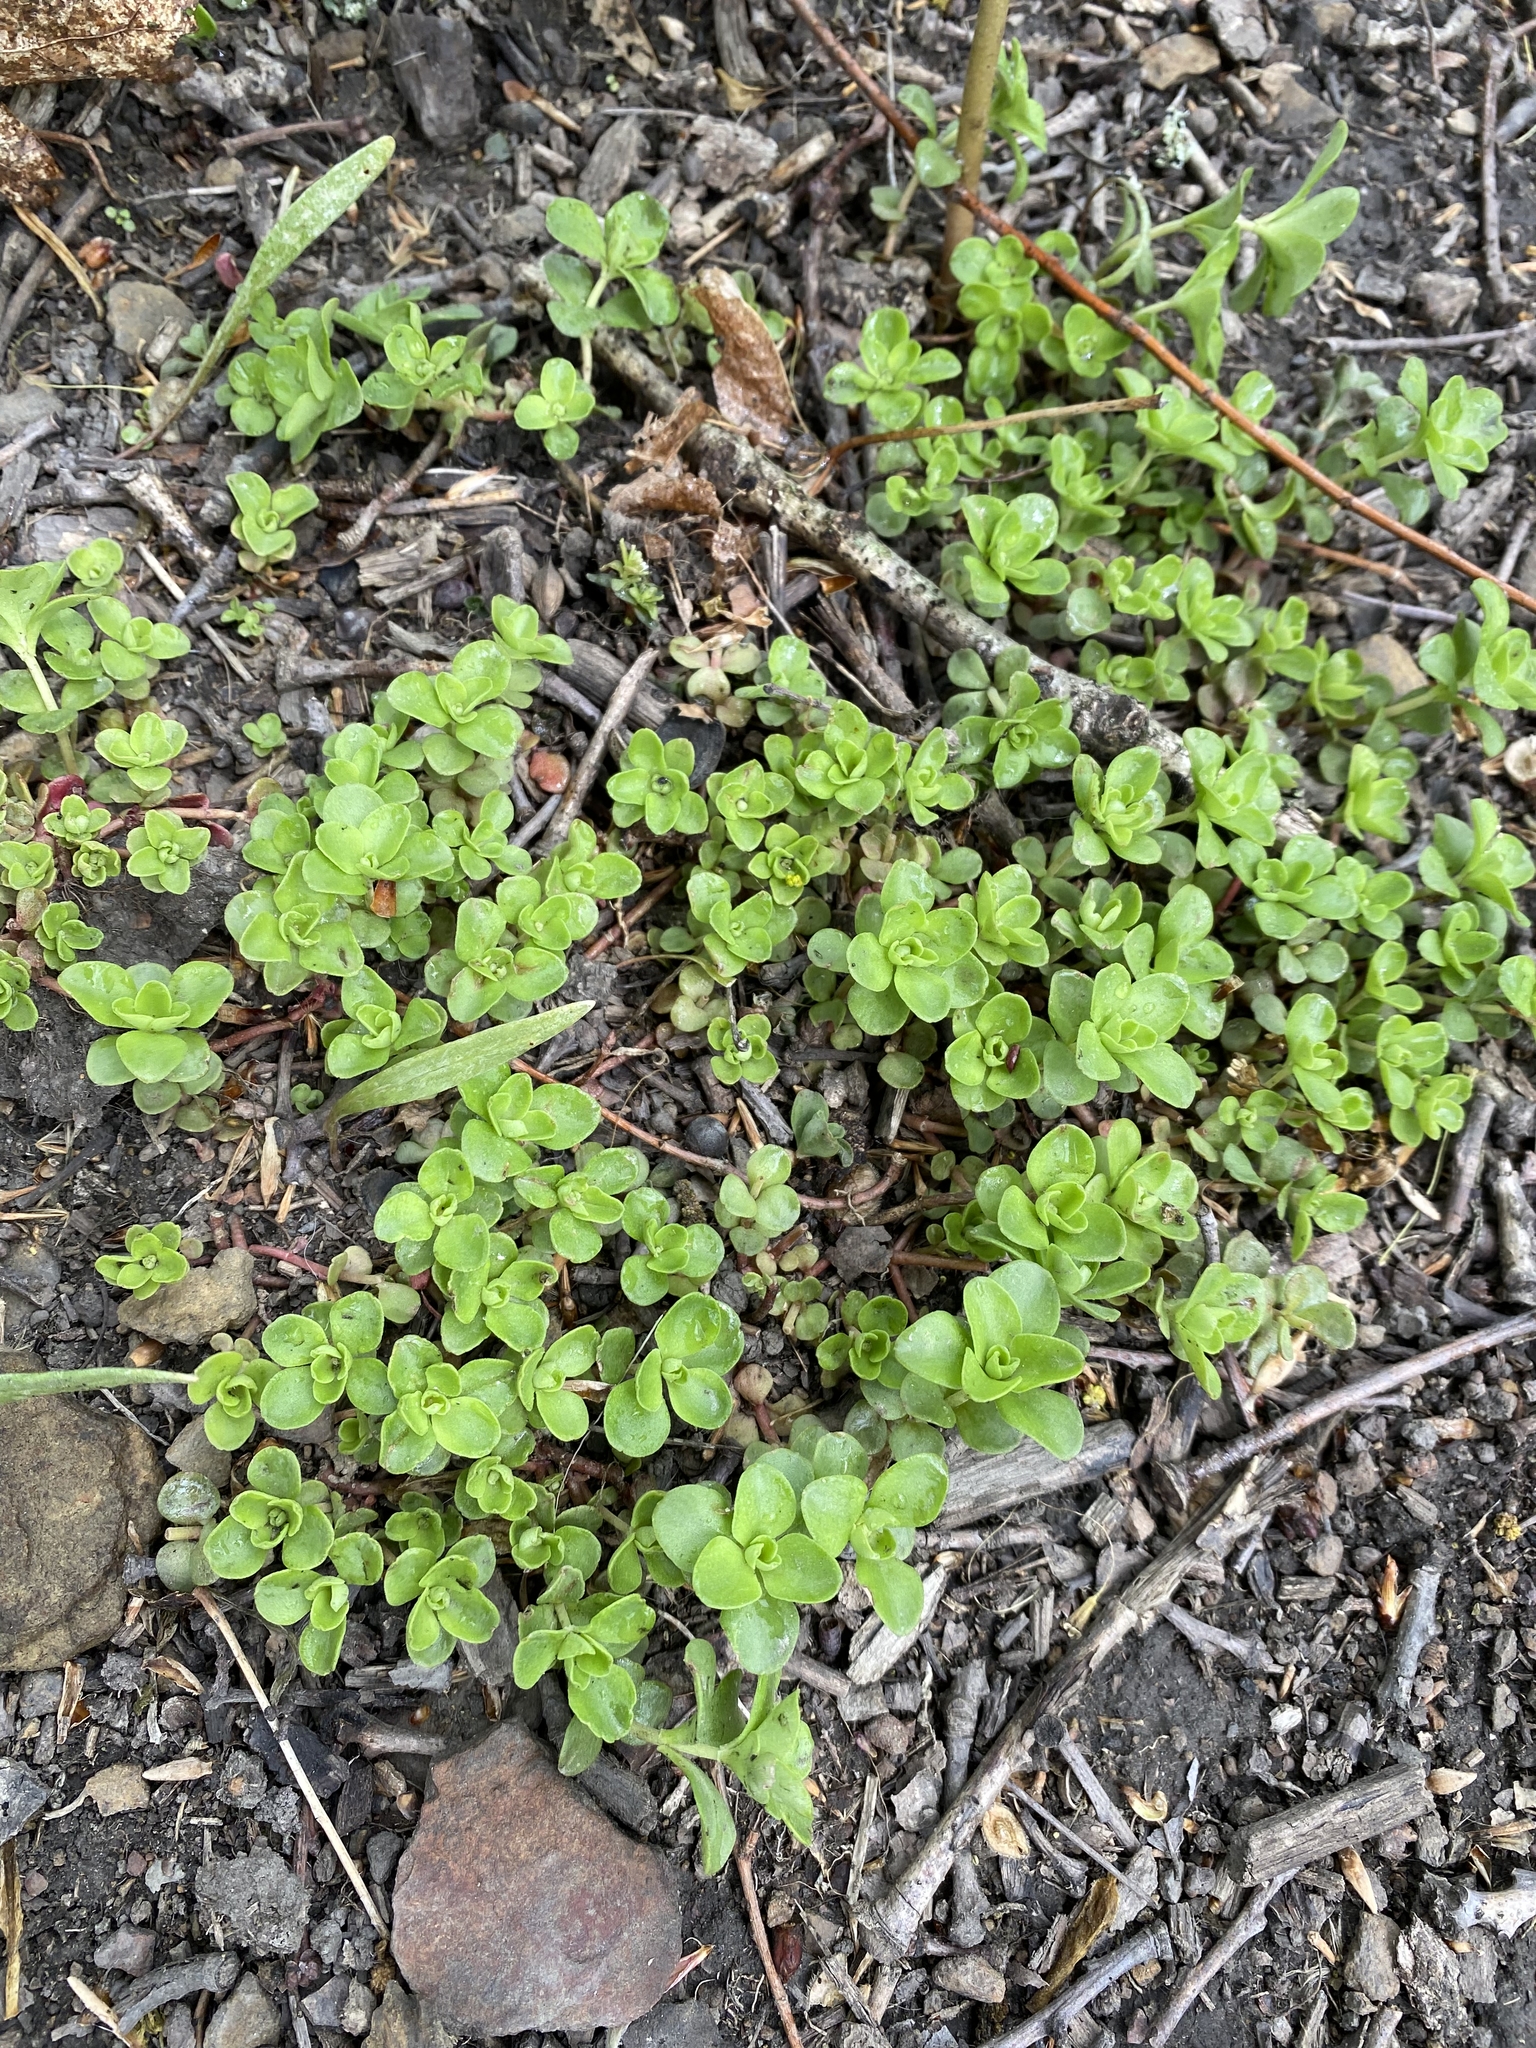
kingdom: Plantae
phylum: Tracheophyta
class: Magnoliopsida
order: Saxifragales
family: Crassulaceae
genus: Sedum
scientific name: Sedum ternatum
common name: Wild stonecrop
